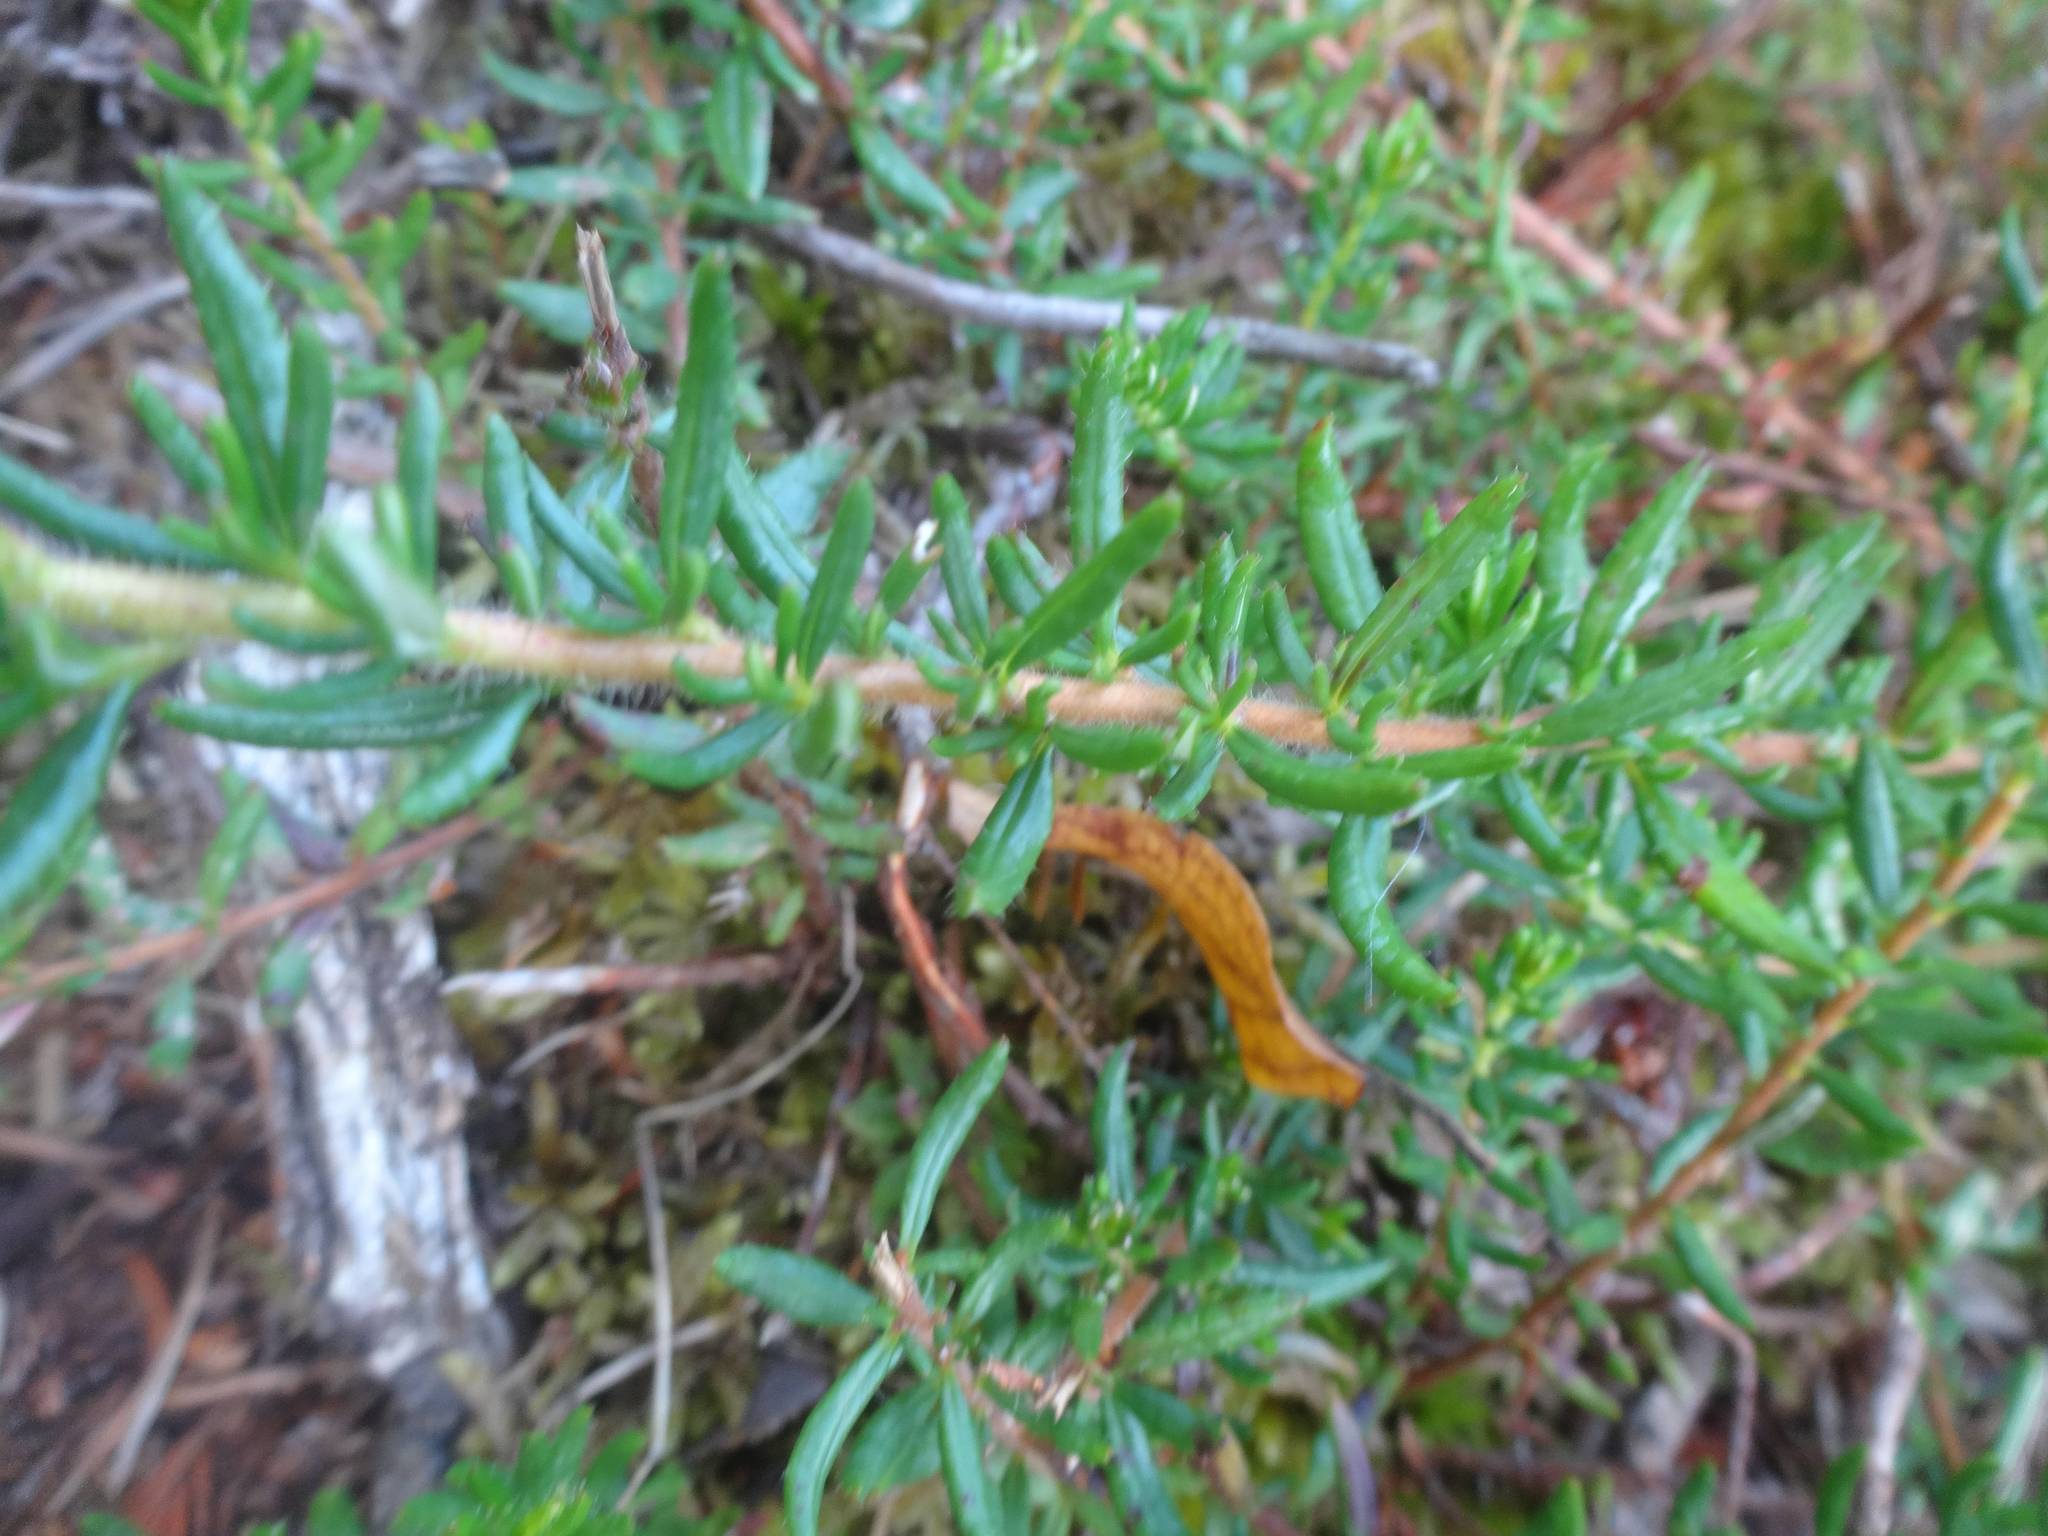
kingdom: Plantae
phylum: Tracheophyta
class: Magnoliopsida
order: Ericales
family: Ericaceae
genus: Daboecia
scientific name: Daboecia cantabrica
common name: St. dabeoc's-heath
